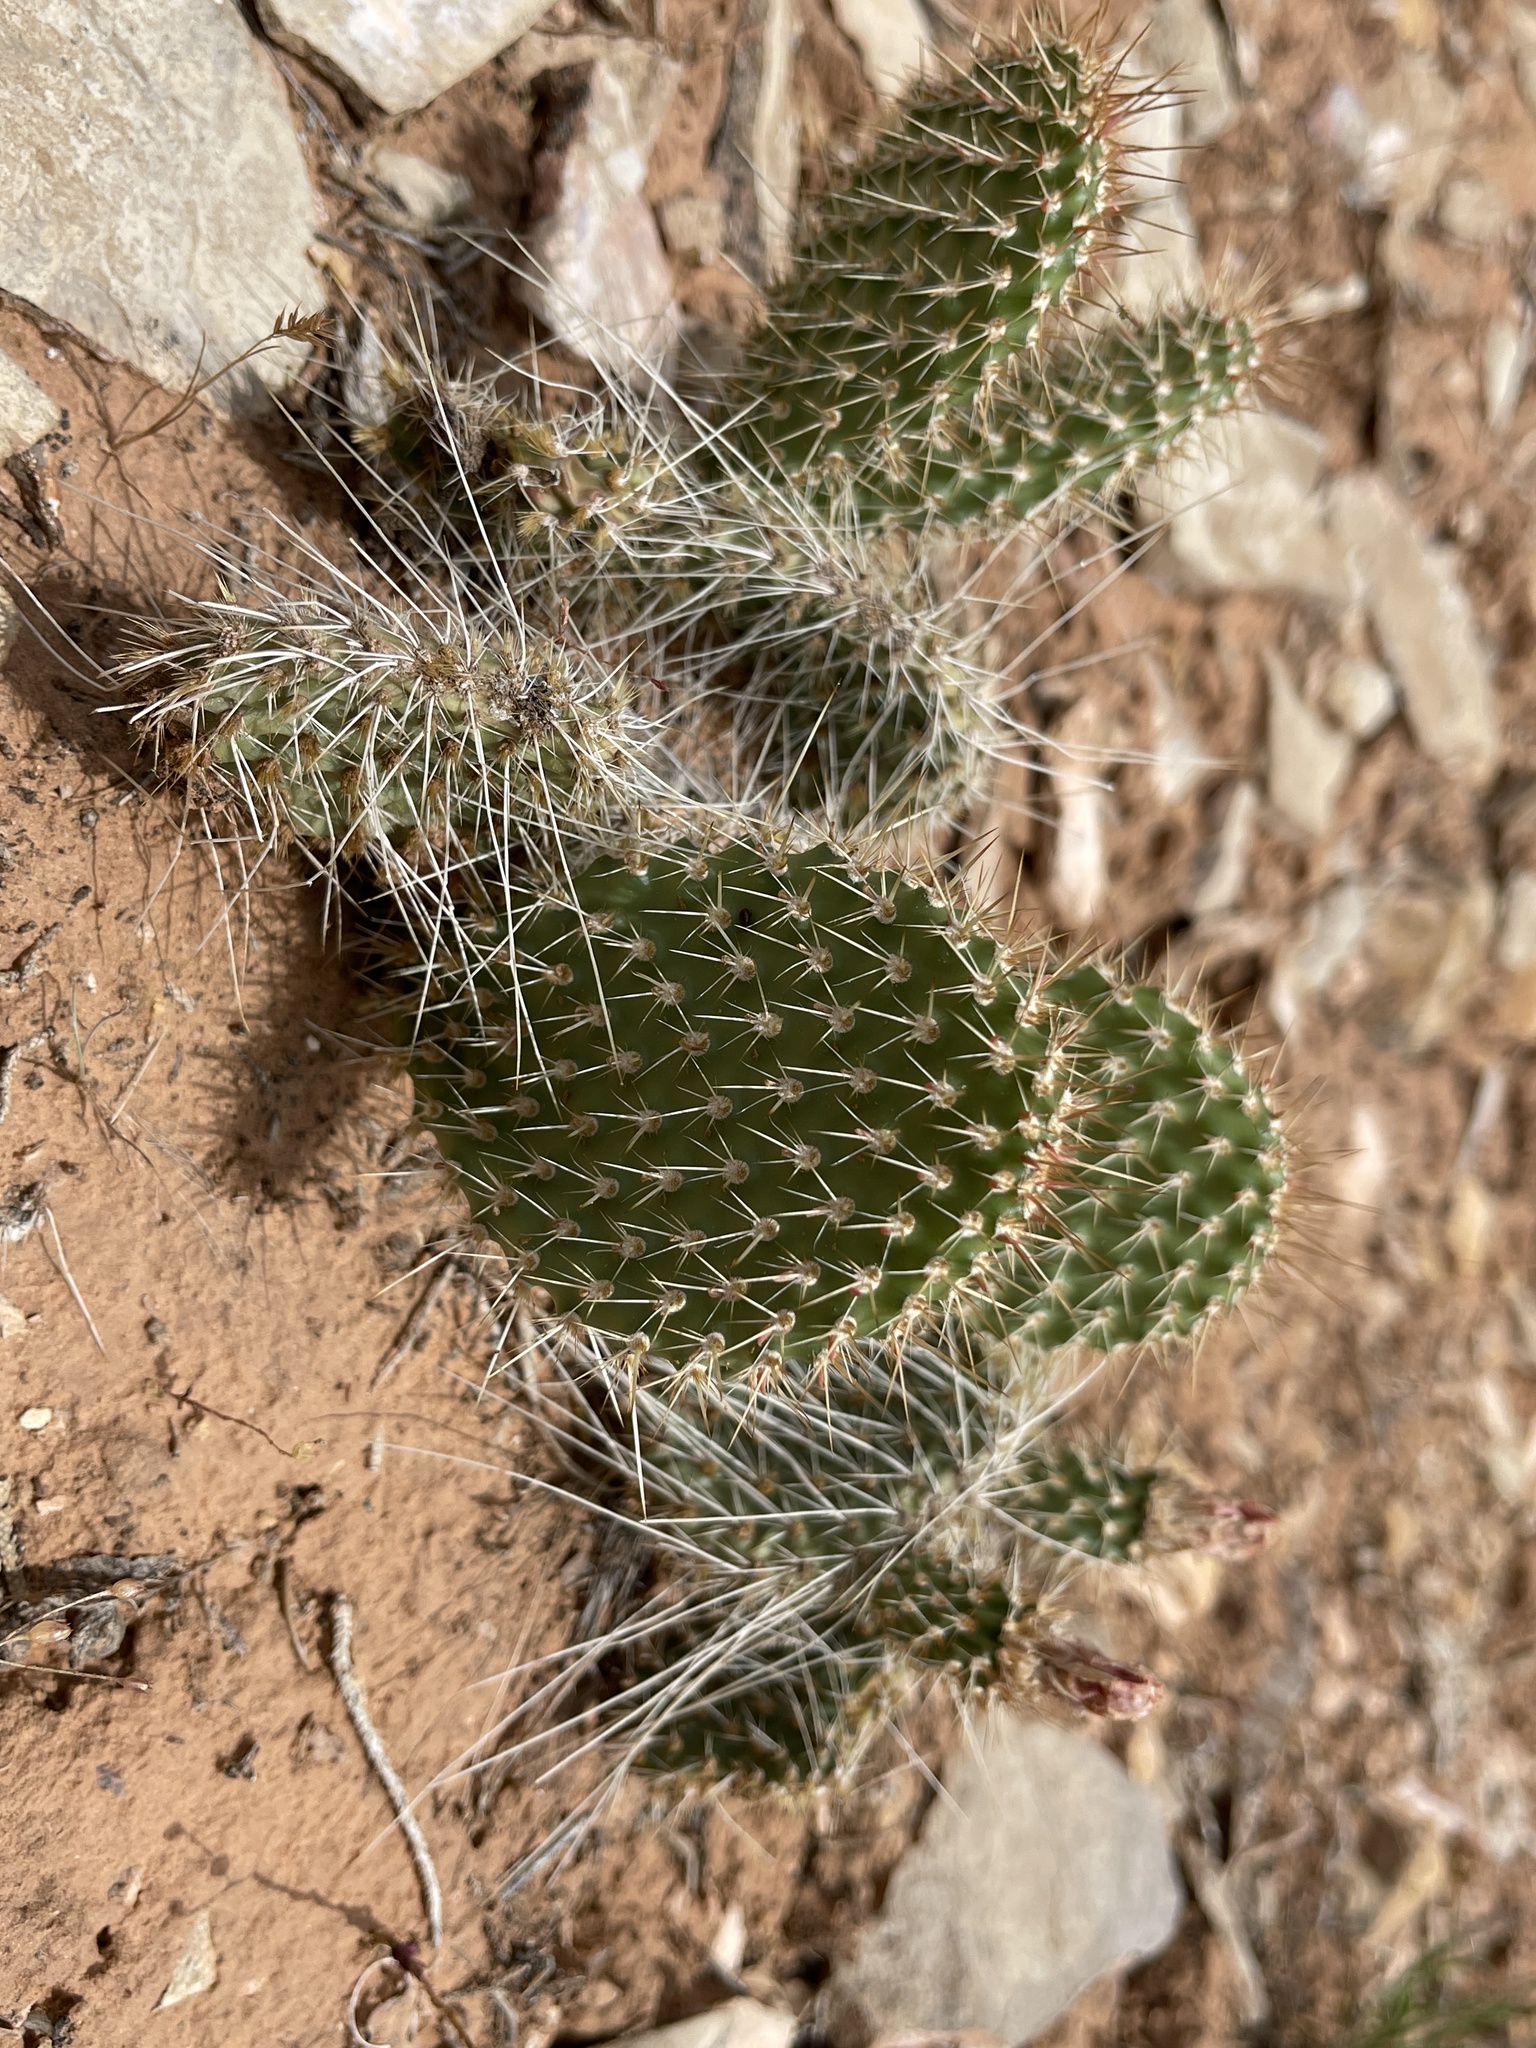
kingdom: Plantae
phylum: Tracheophyta
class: Magnoliopsida
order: Caryophyllales
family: Cactaceae
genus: Opuntia
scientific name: Opuntia polyacantha
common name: Plains prickly-pear
